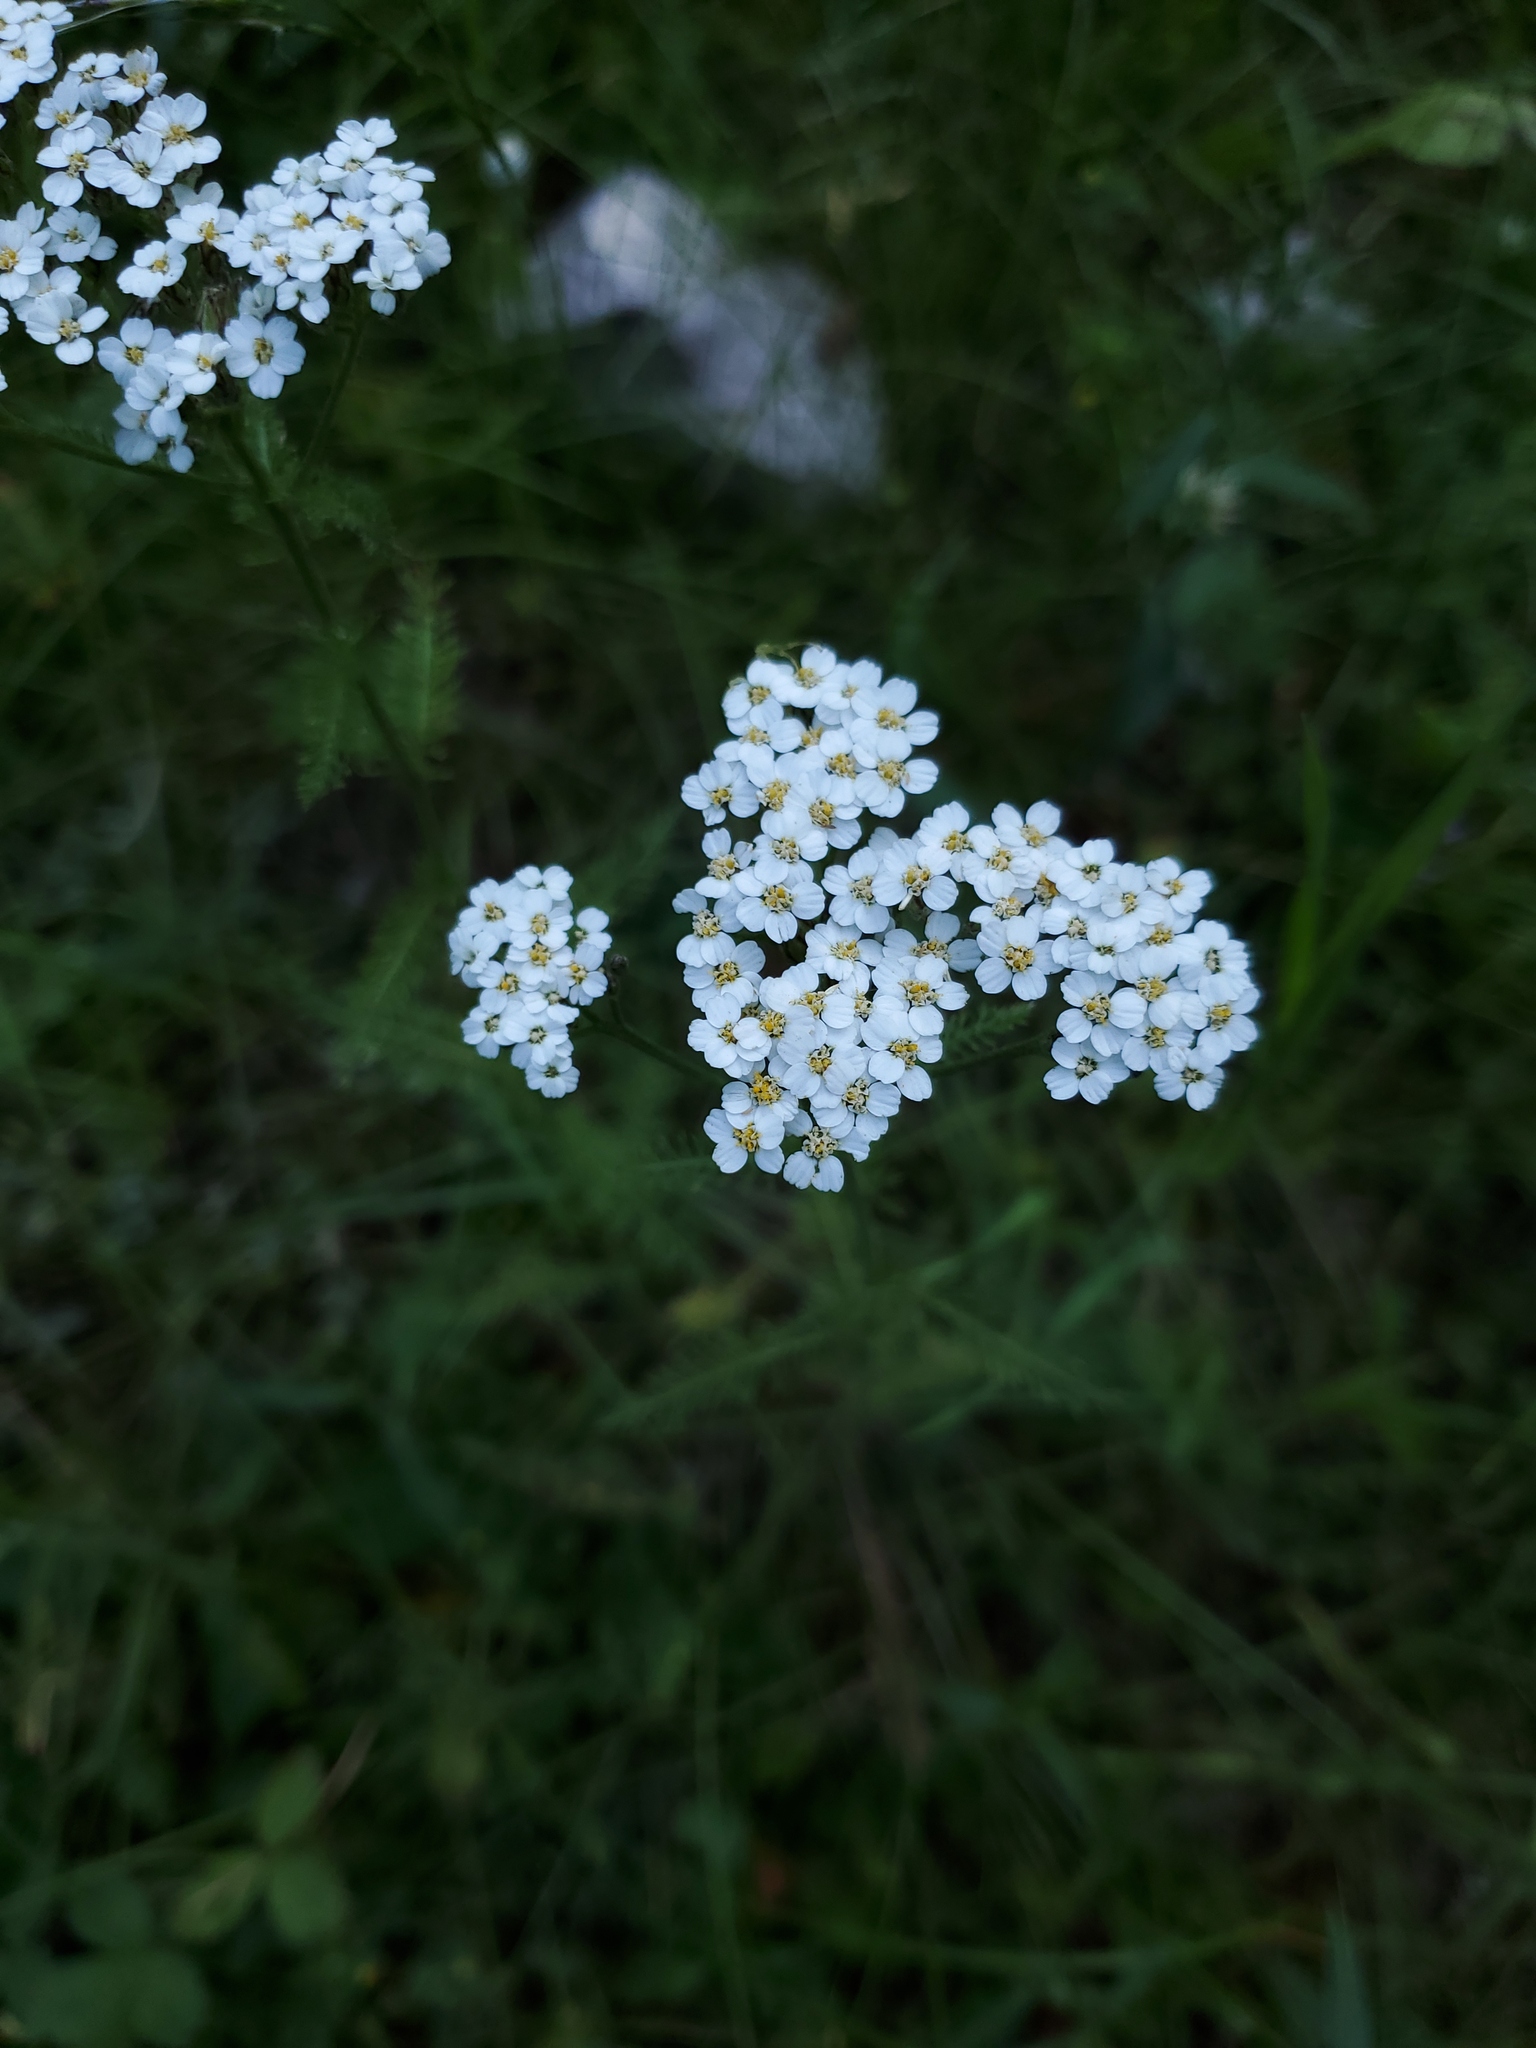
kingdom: Plantae
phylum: Tracheophyta
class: Magnoliopsida
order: Asterales
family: Asteraceae
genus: Achillea
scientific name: Achillea millefolium
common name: Yarrow
